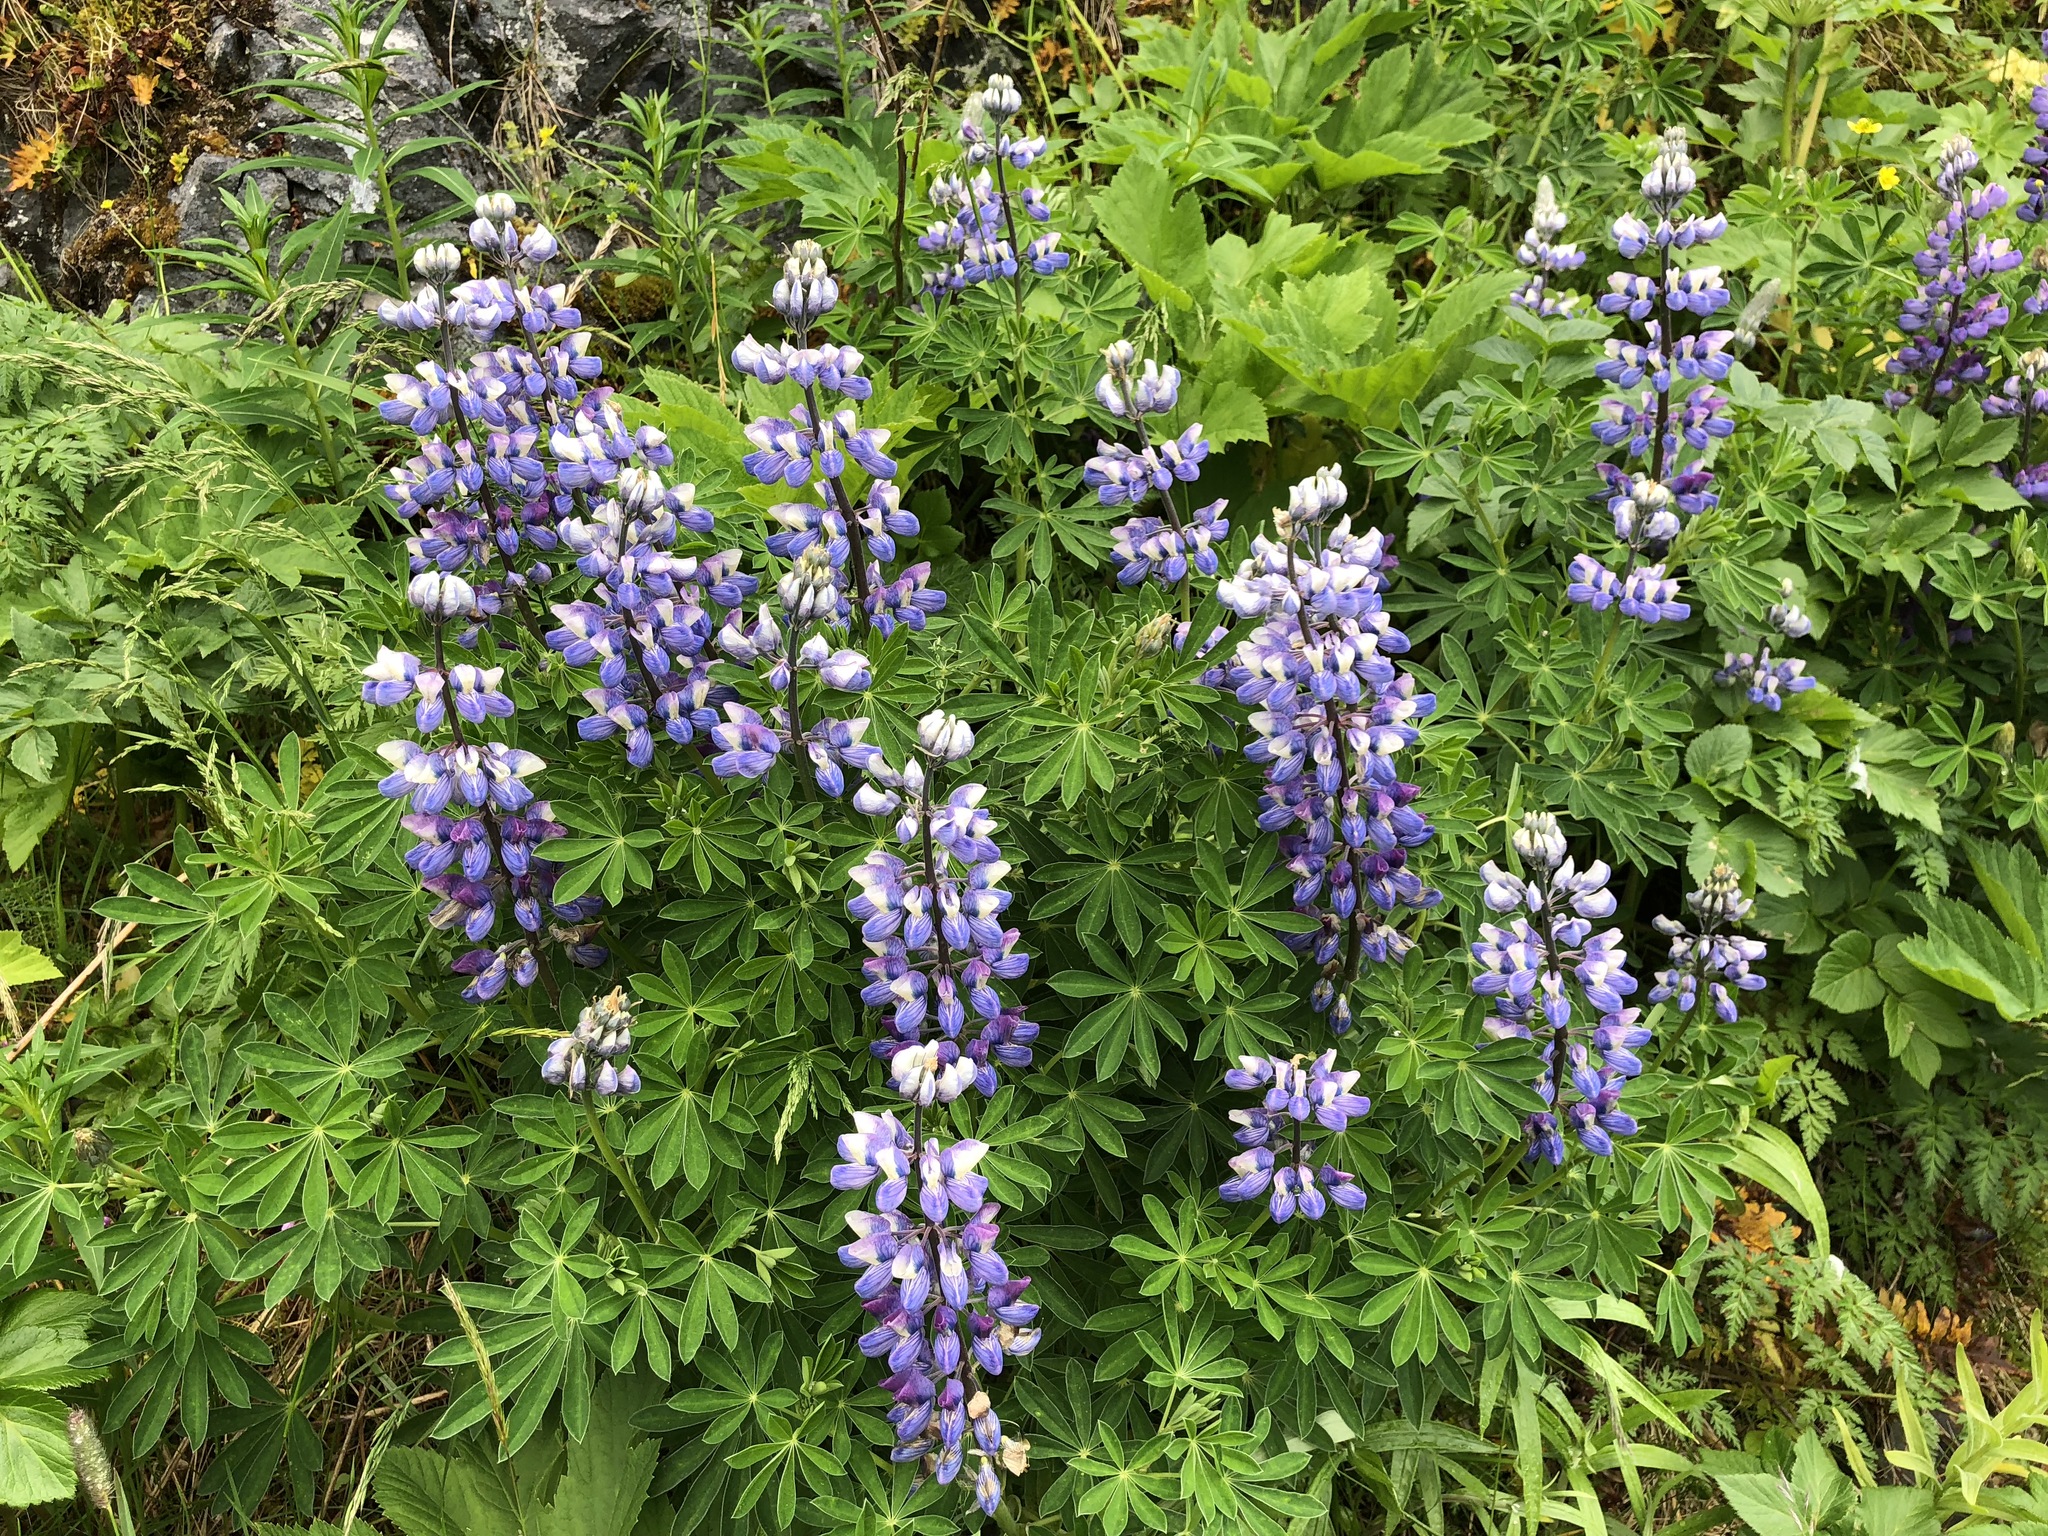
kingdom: Plantae
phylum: Tracheophyta
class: Magnoliopsida
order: Fabales
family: Fabaceae
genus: Lupinus
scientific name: Lupinus nootkatensis
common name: Nootka lupine
